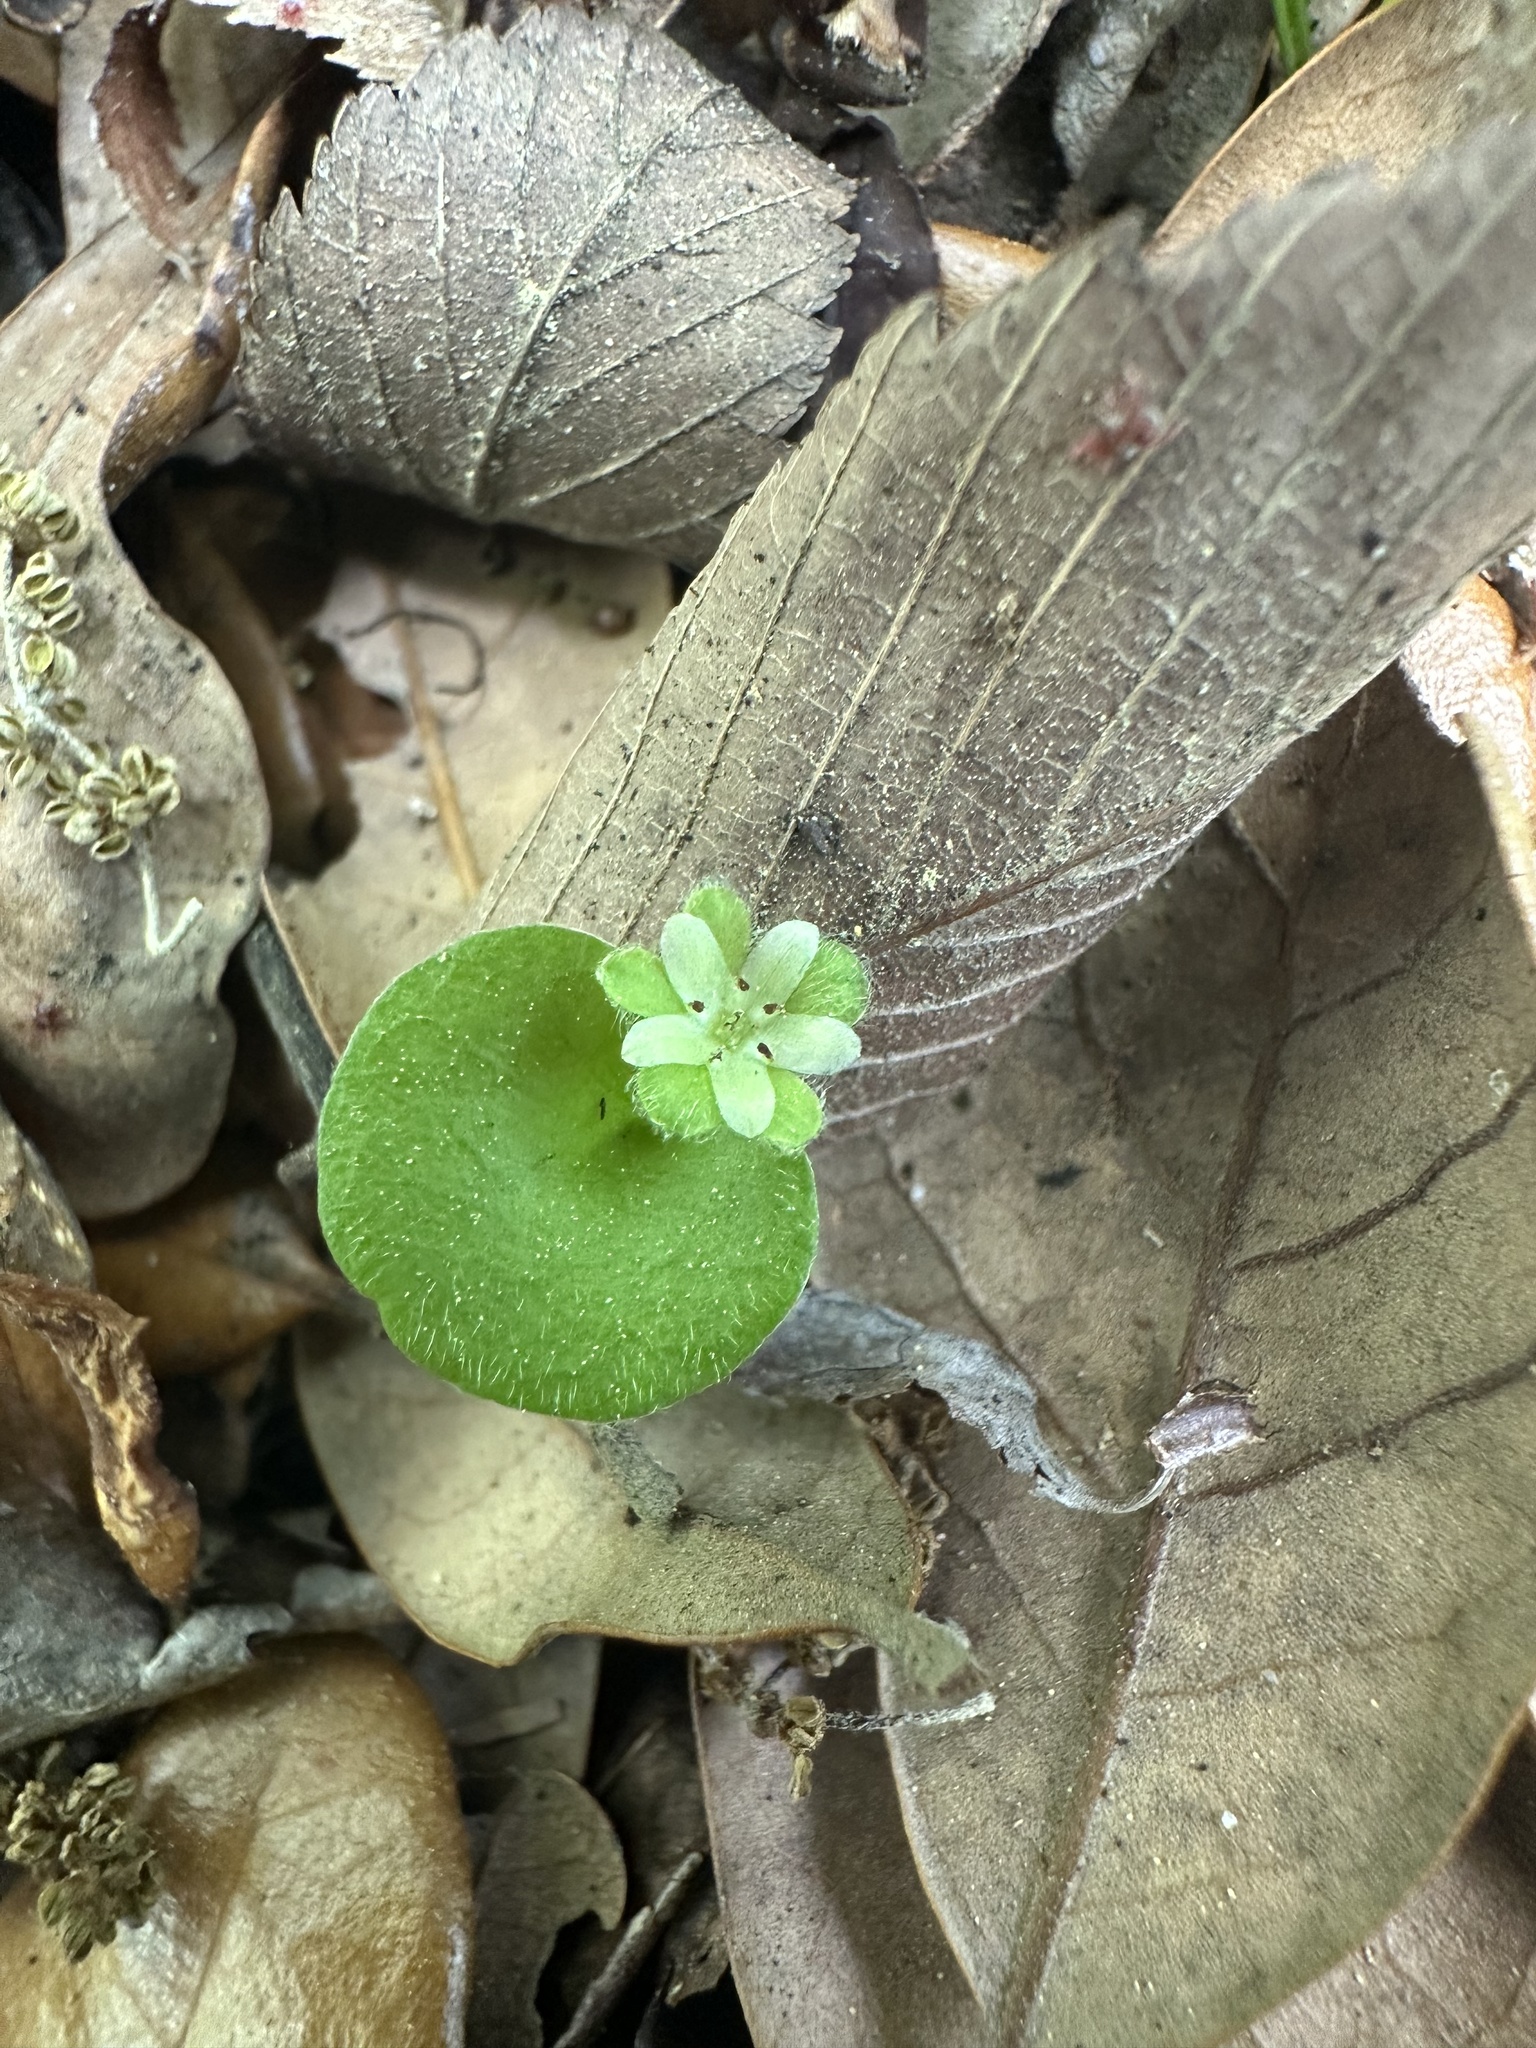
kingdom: Plantae
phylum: Tracheophyta
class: Magnoliopsida
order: Solanales
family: Convolvulaceae
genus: Dichondra
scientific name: Dichondra carolinensis
